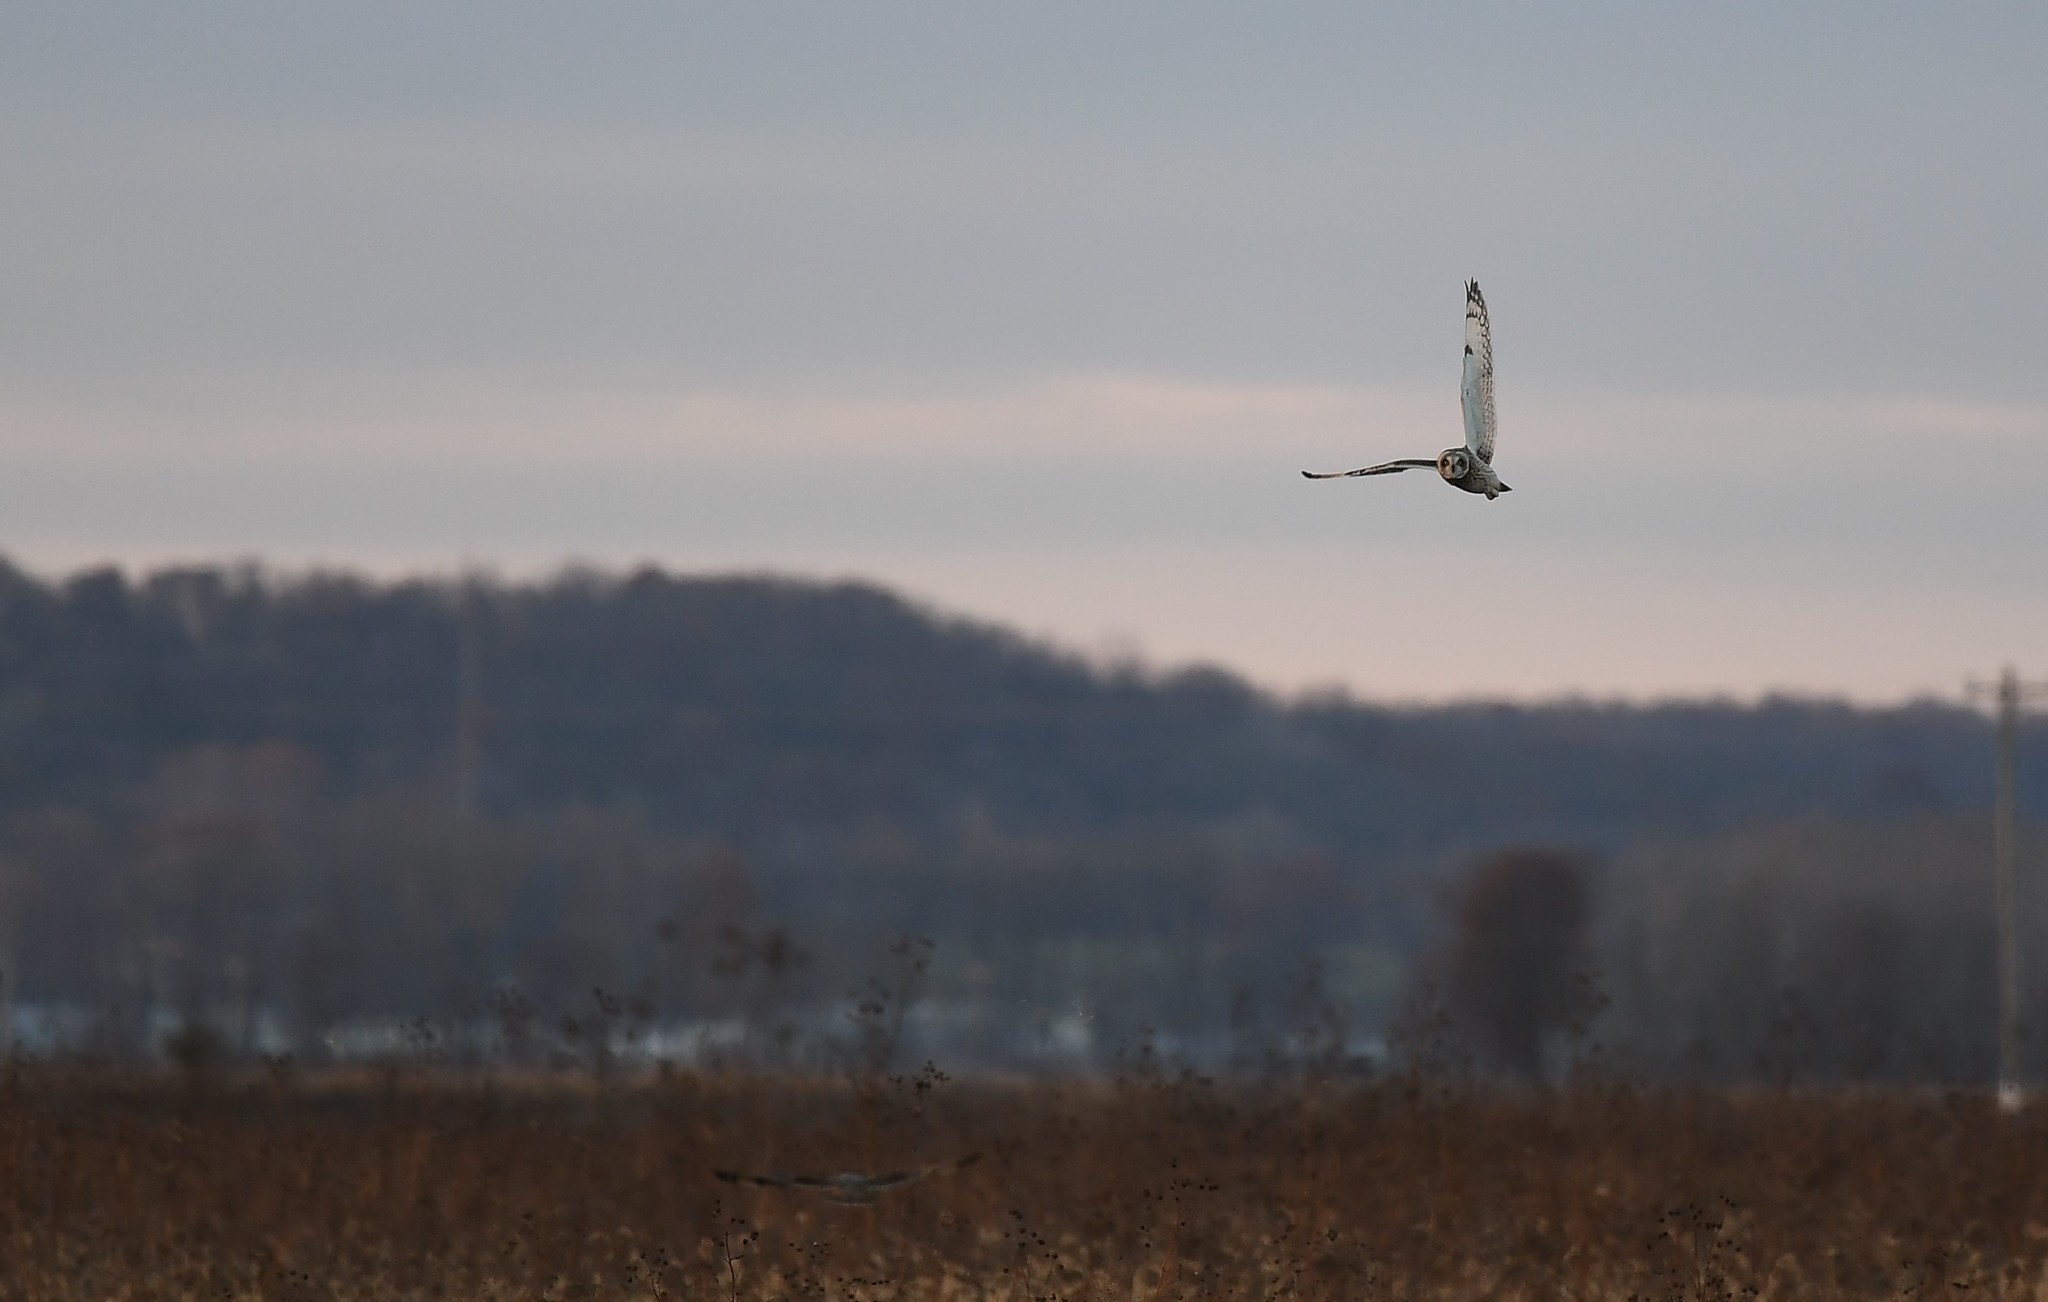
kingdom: Animalia
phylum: Chordata
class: Aves
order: Strigiformes
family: Strigidae
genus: Asio
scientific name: Asio flammeus
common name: Short-eared owl
